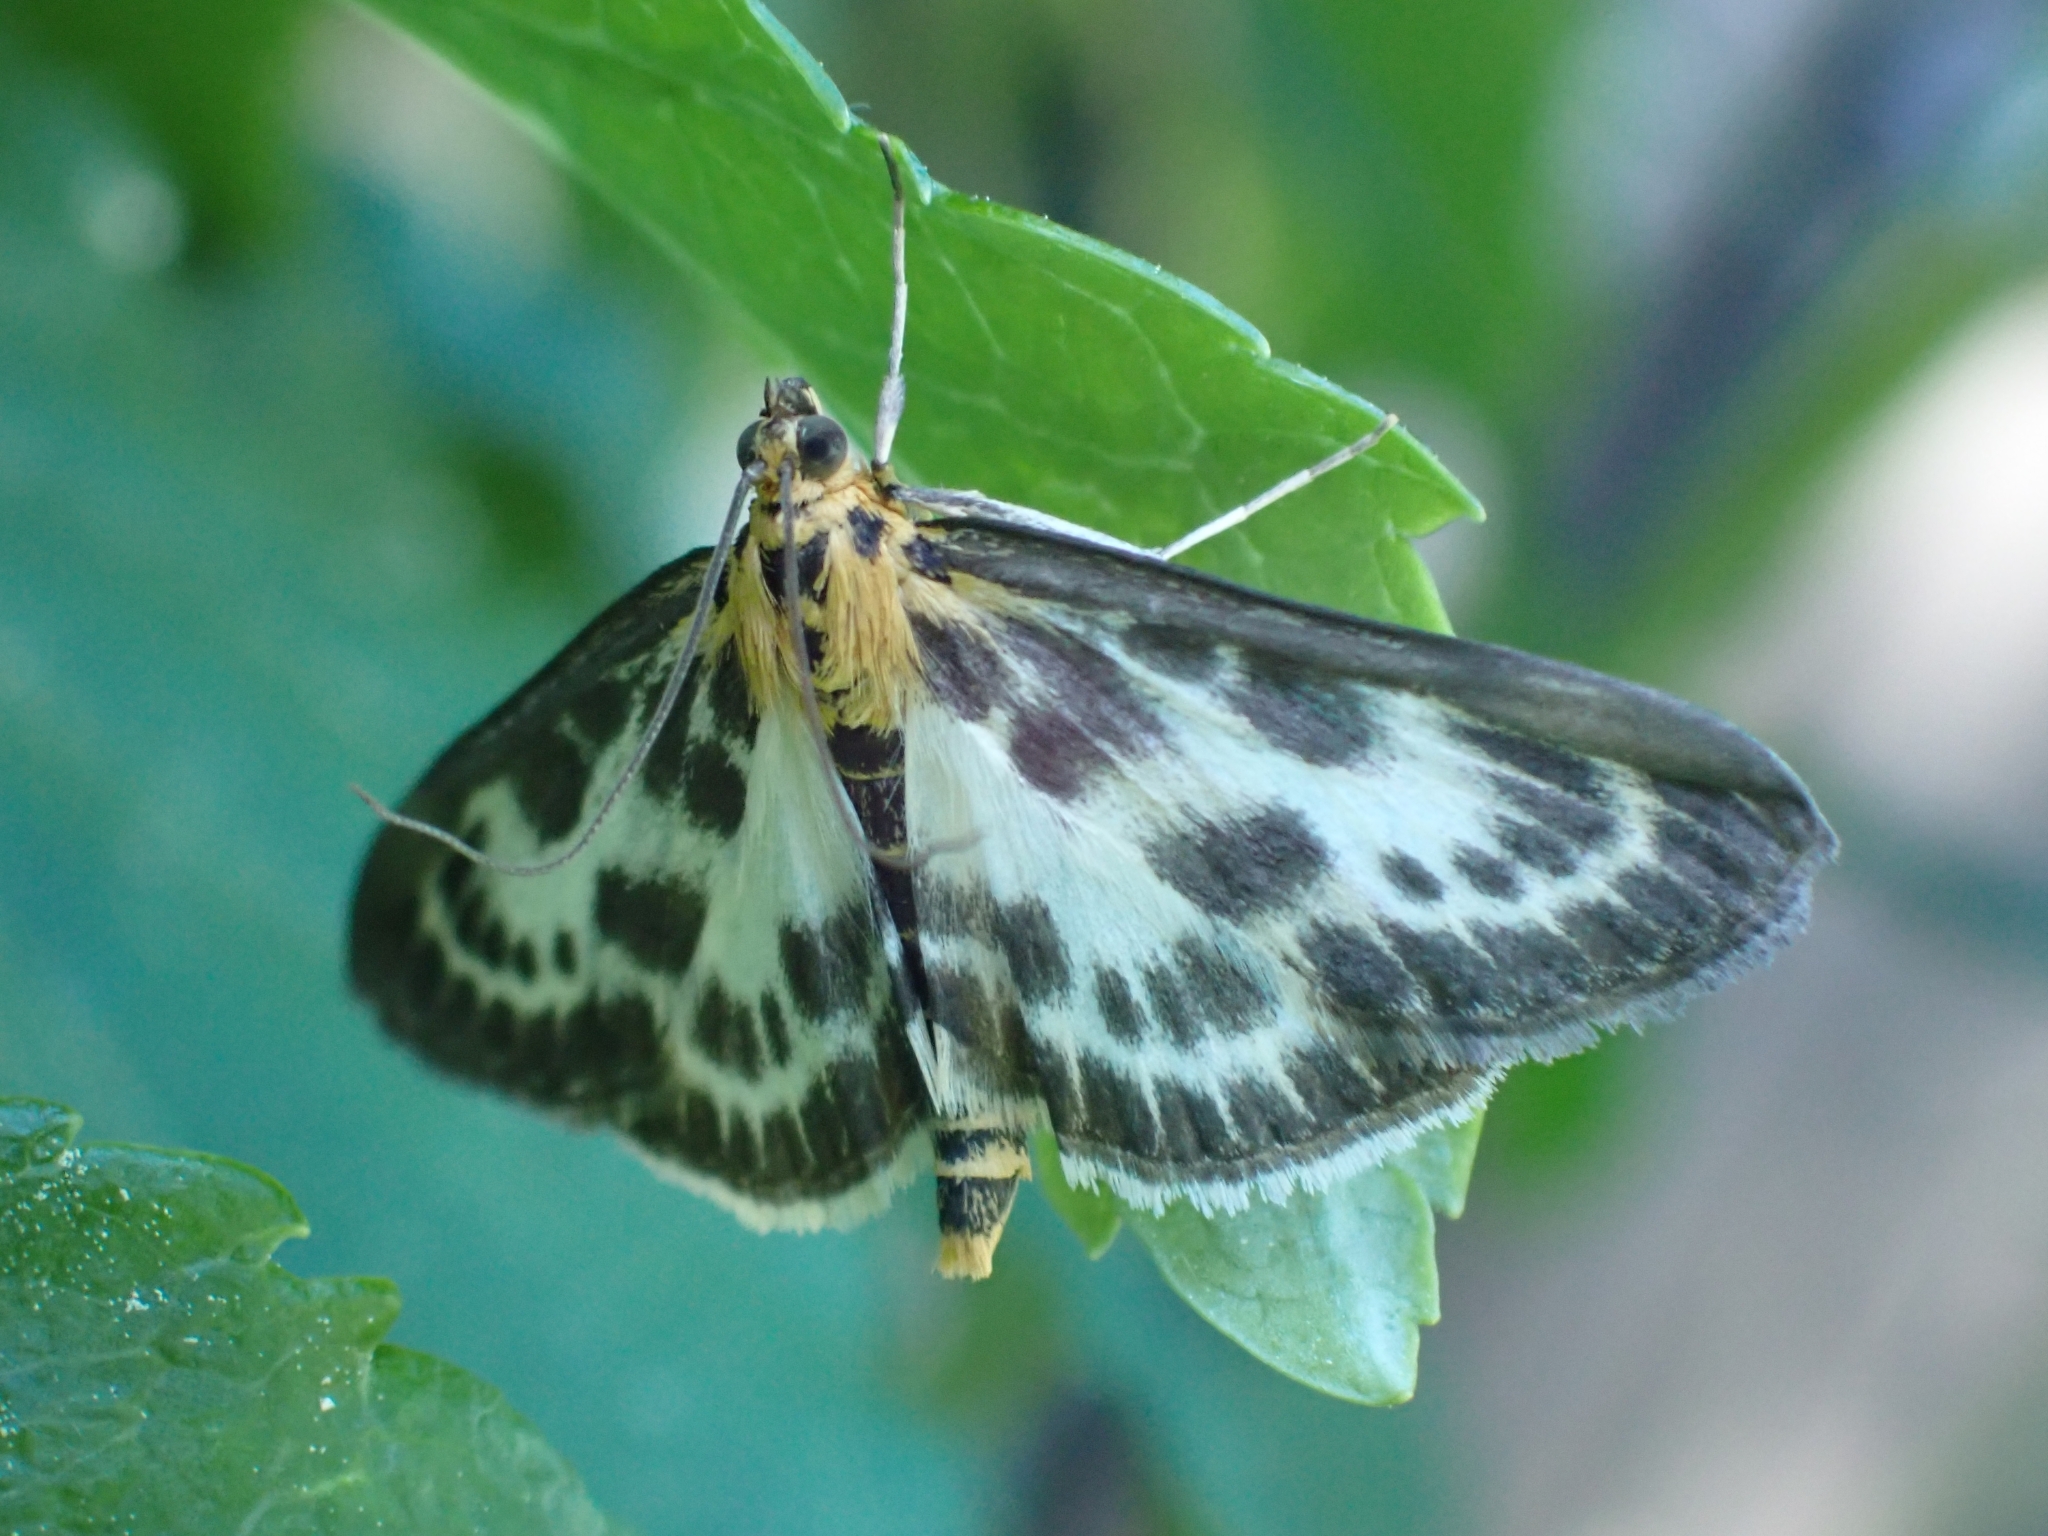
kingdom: Animalia
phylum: Arthropoda
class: Insecta
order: Lepidoptera
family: Crambidae
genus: Anania
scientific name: Anania hortulata
